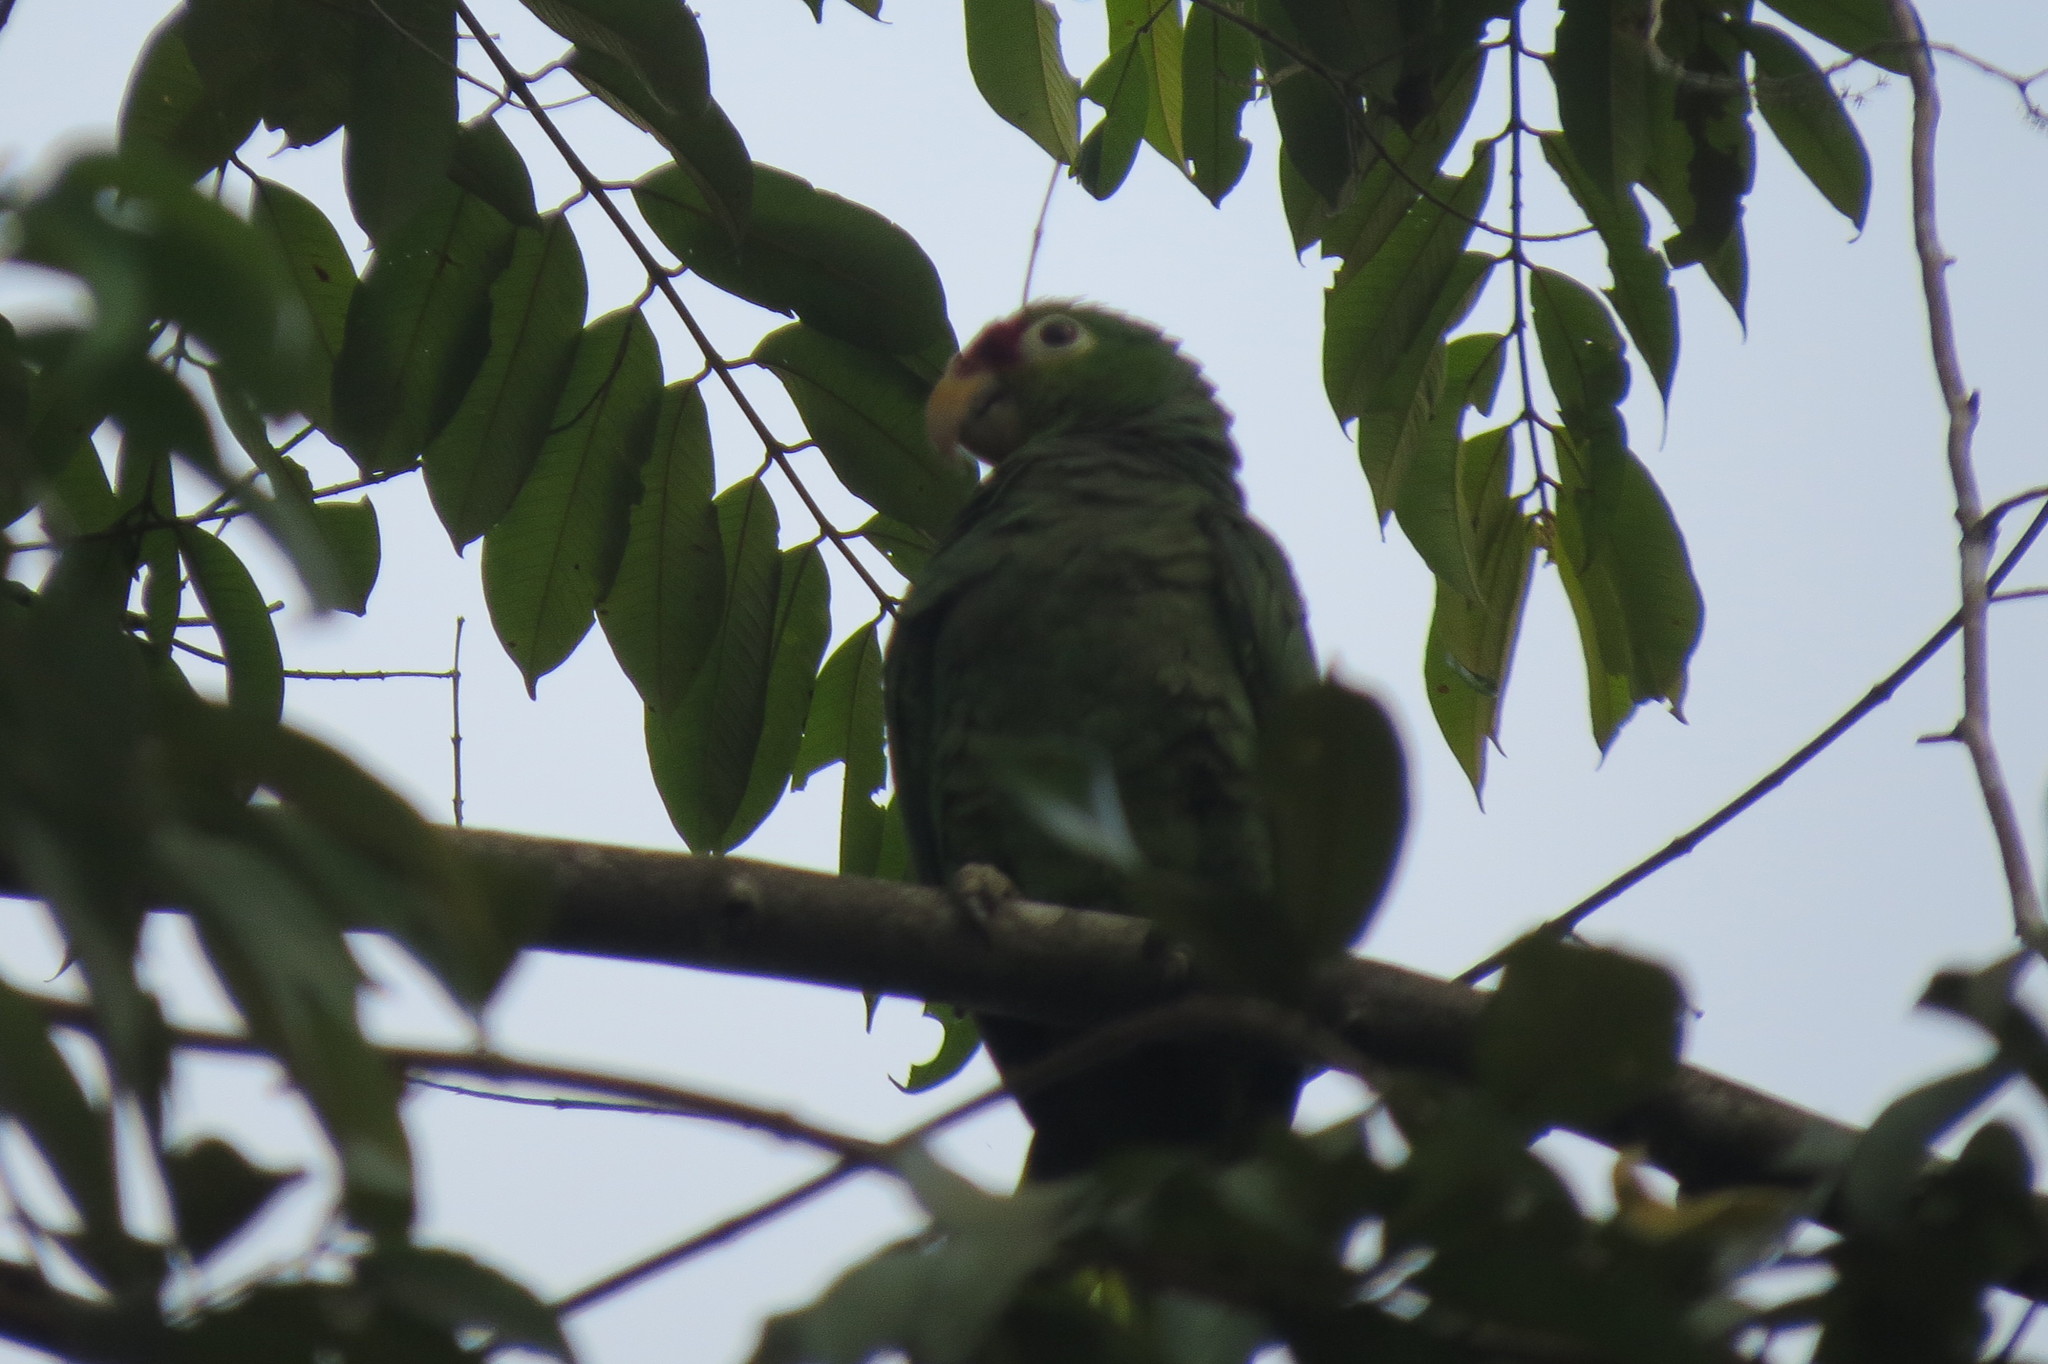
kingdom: Animalia
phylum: Chordata
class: Aves
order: Psittaciformes
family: Psittacidae
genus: Amazona
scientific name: Amazona autumnalis
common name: Red-lored amazon
